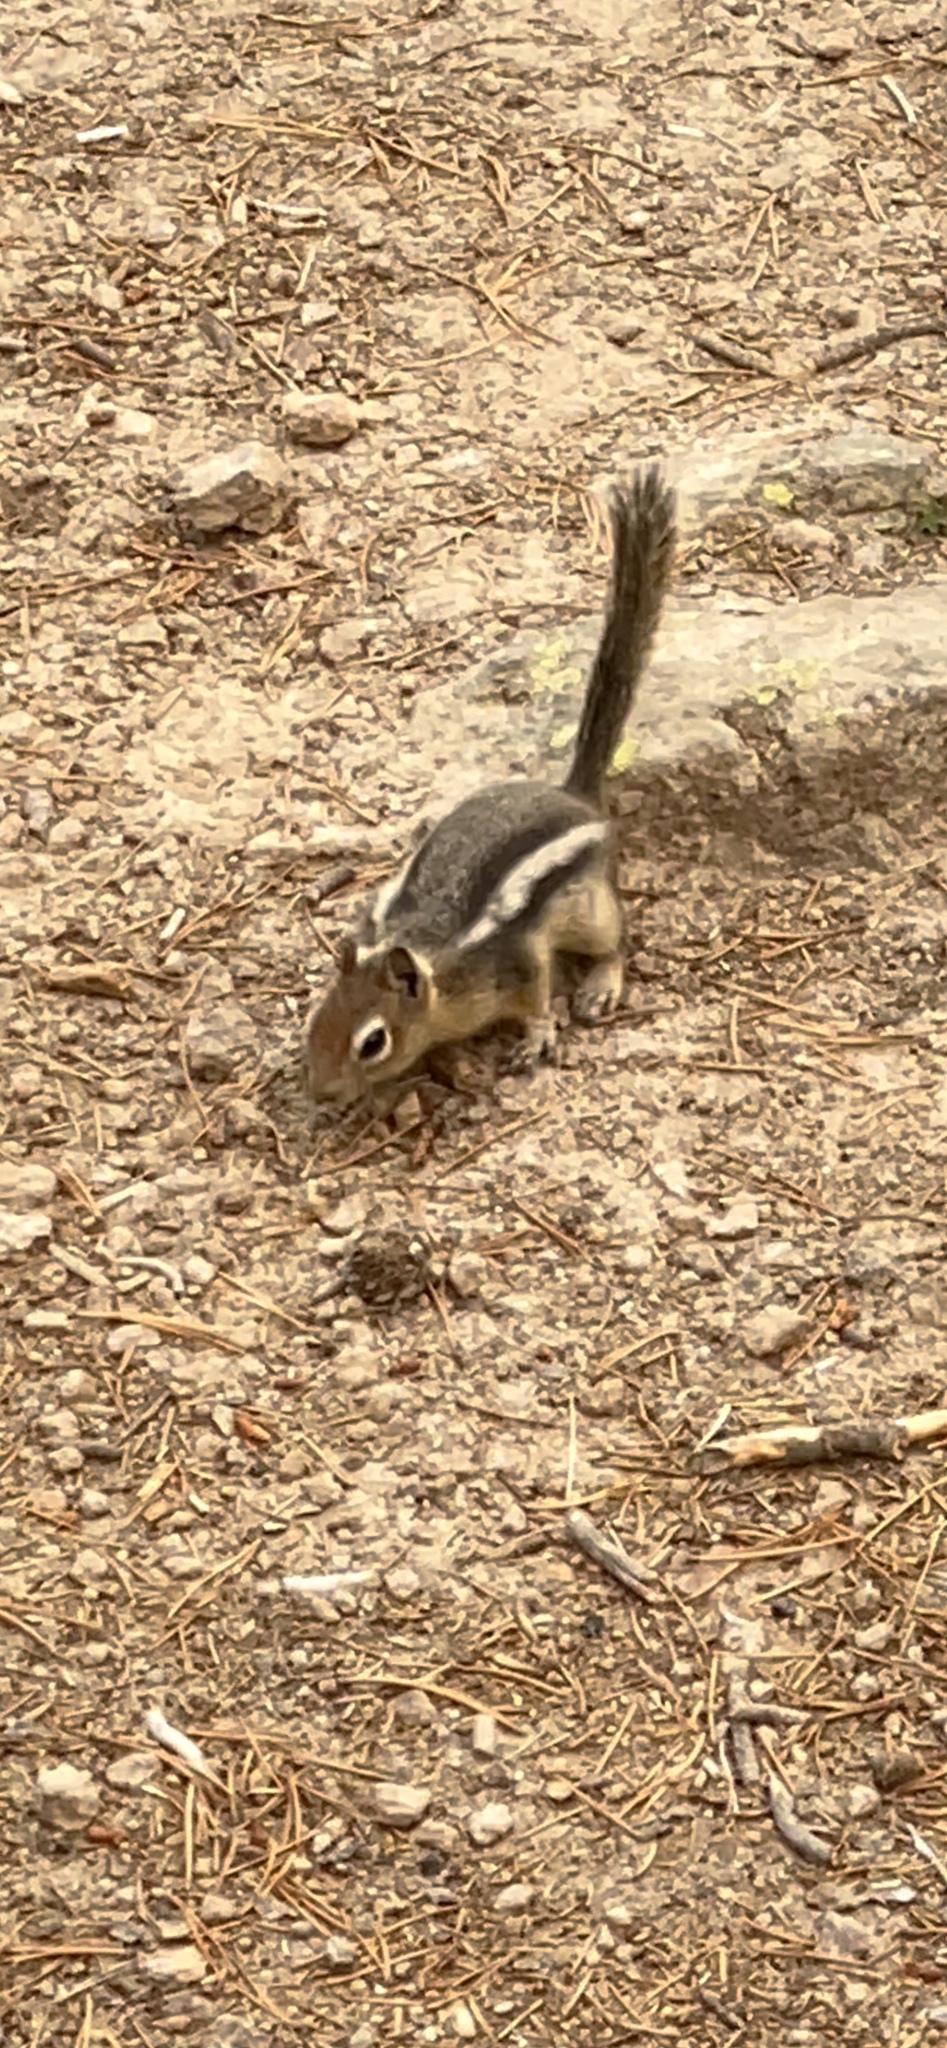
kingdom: Animalia
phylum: Chordata
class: Mammalia
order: Rodentia
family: Sciuridae
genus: Callospermophilus
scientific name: Callospermophilus lateralis
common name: Golden-mantled ground squirrel
